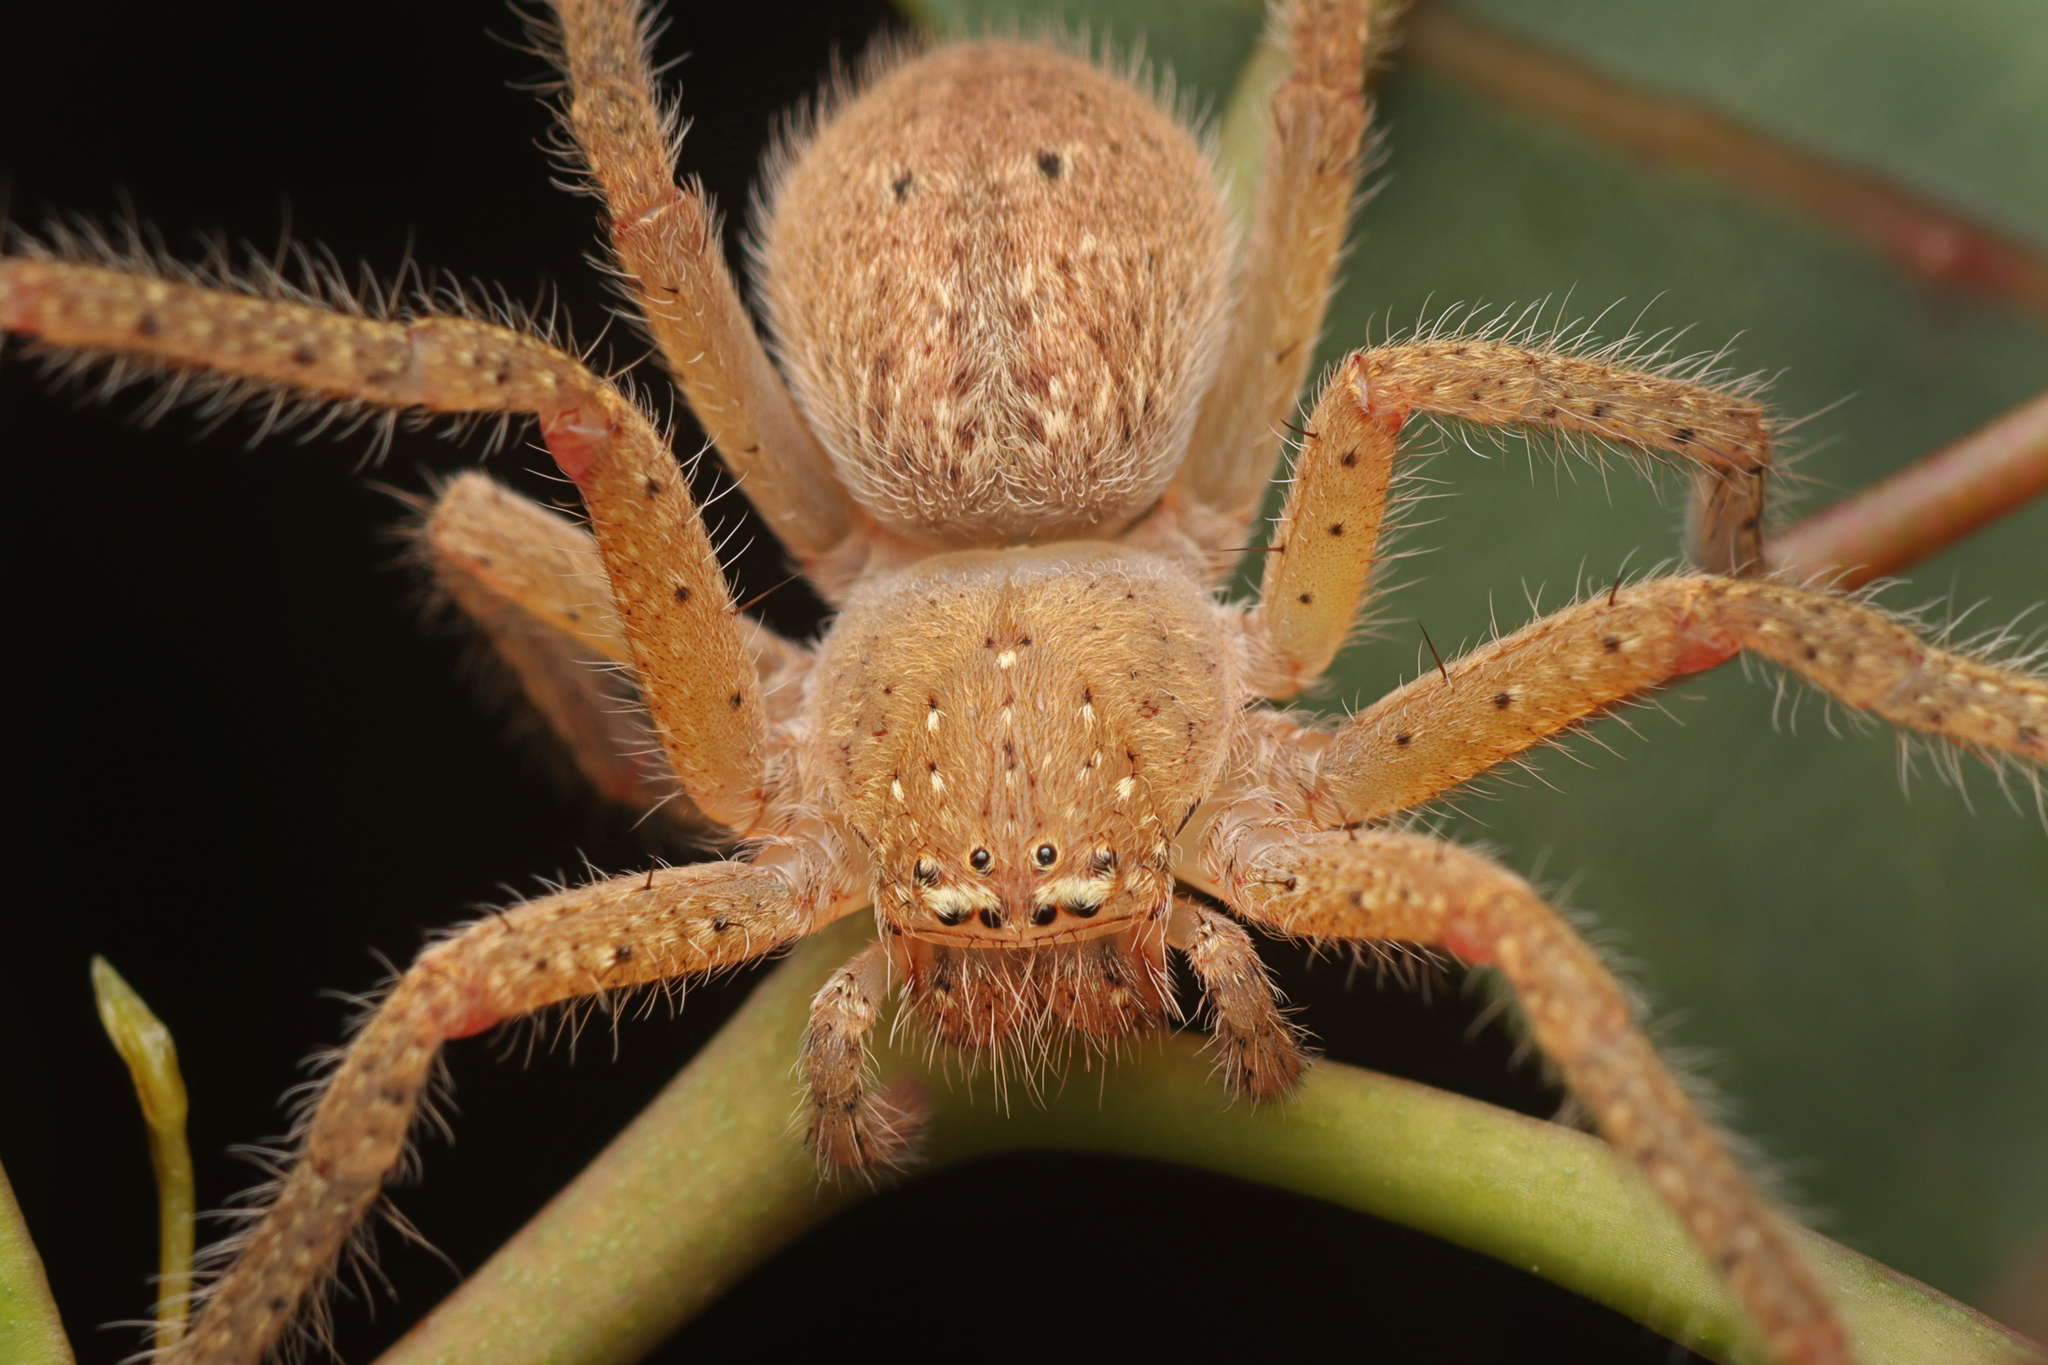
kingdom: Animalia
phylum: Arthropoda
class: Arachnida
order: Araneae
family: Sparassidae
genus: Neosparassus
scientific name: Neosparassus diana
